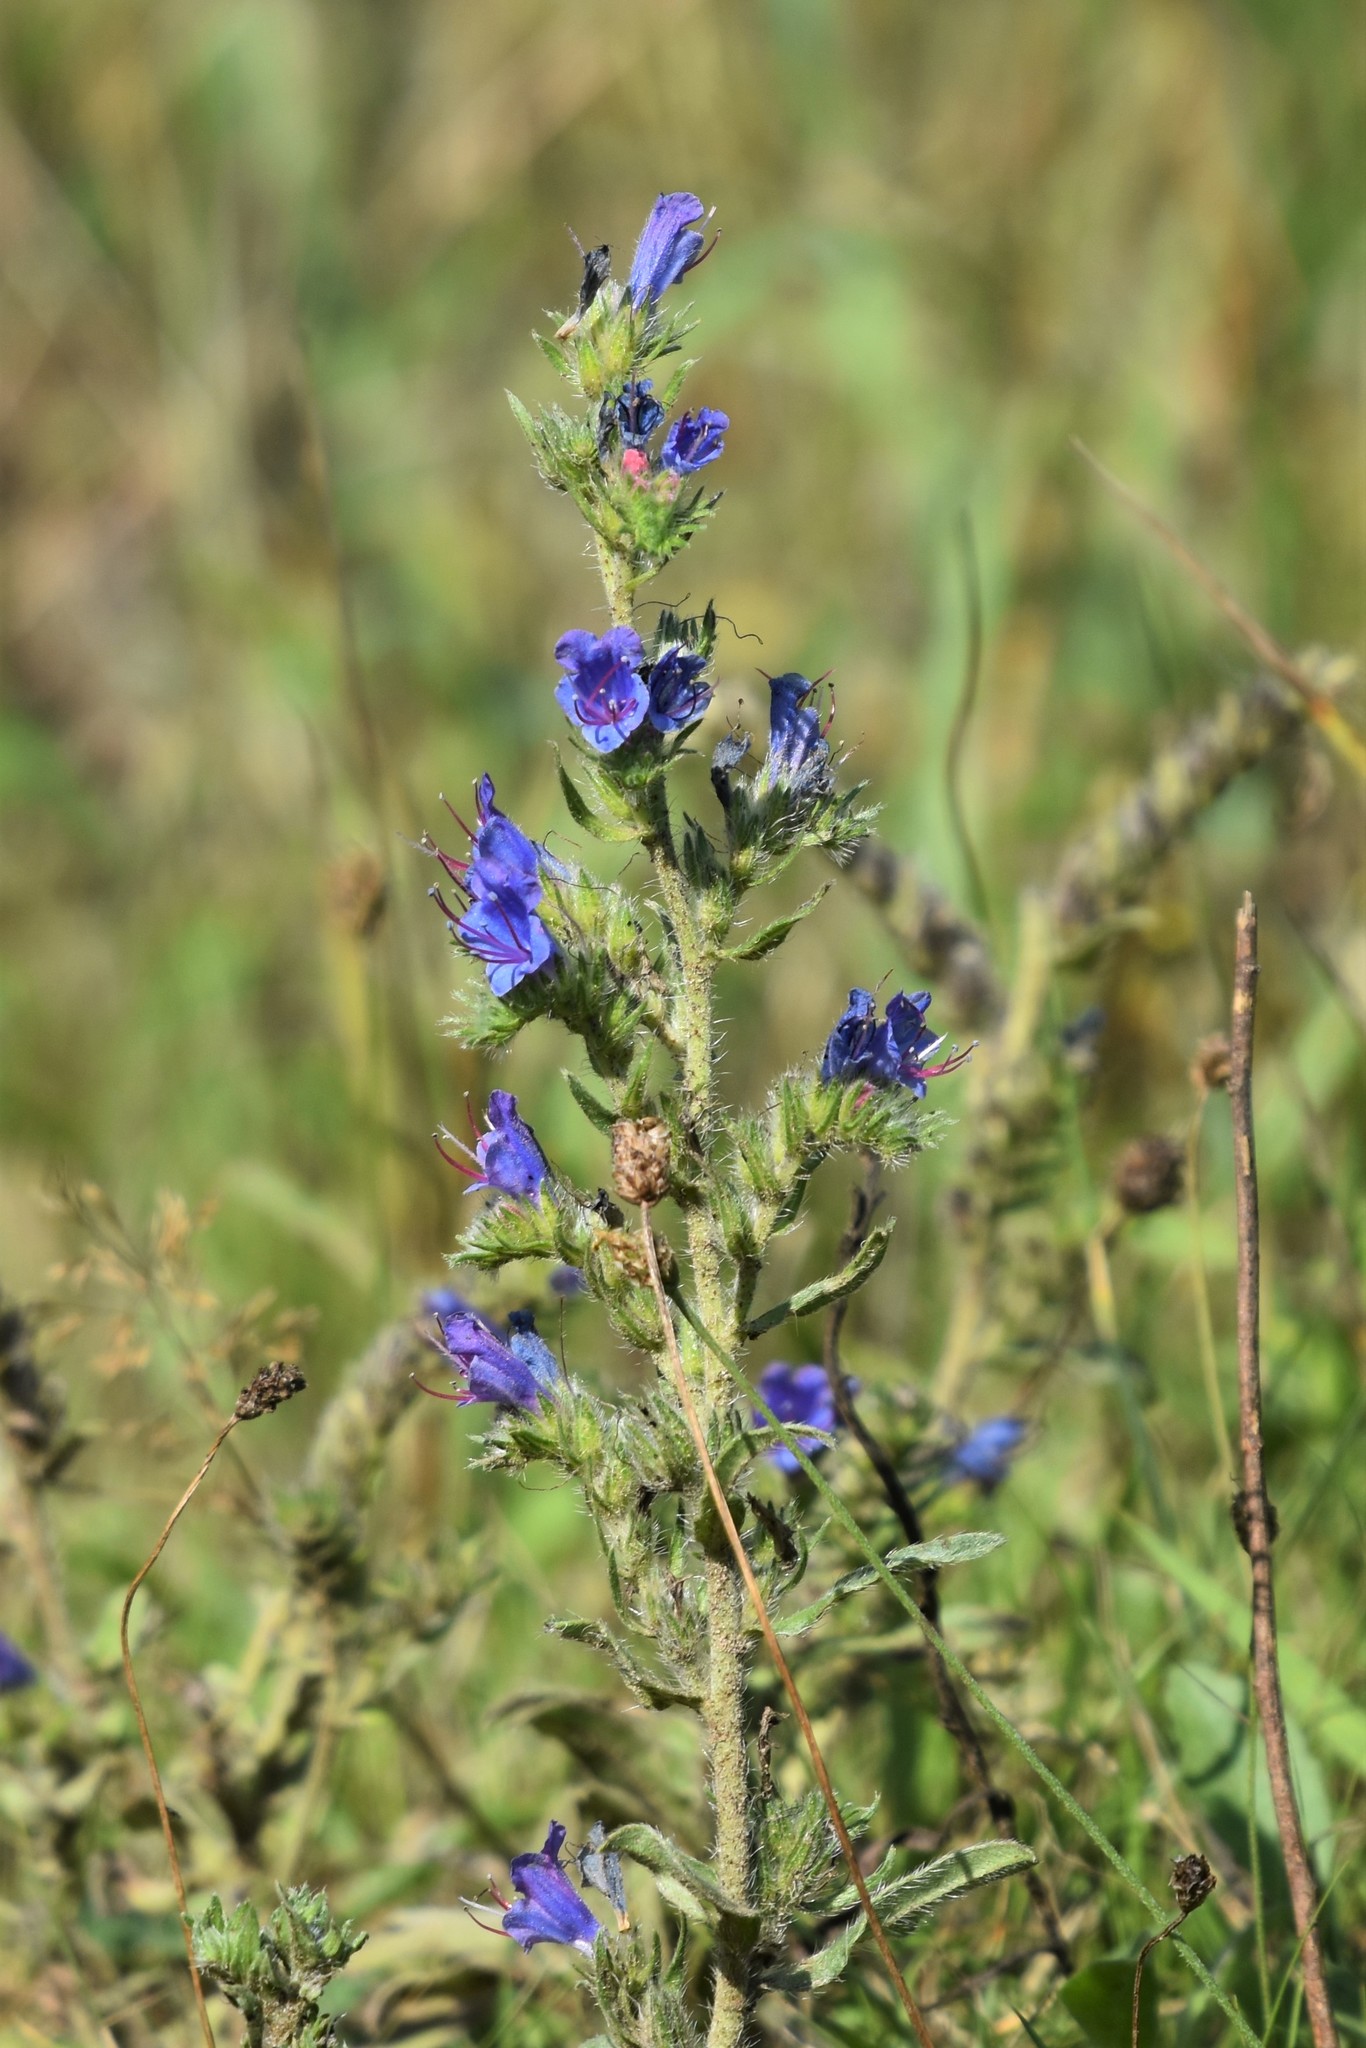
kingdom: Plantae
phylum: Tracheophyta
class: Magnoliopsida
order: Boraginales
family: Boraginaceae
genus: Echium
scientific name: Echium vulgare
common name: Common viper's bugloss
